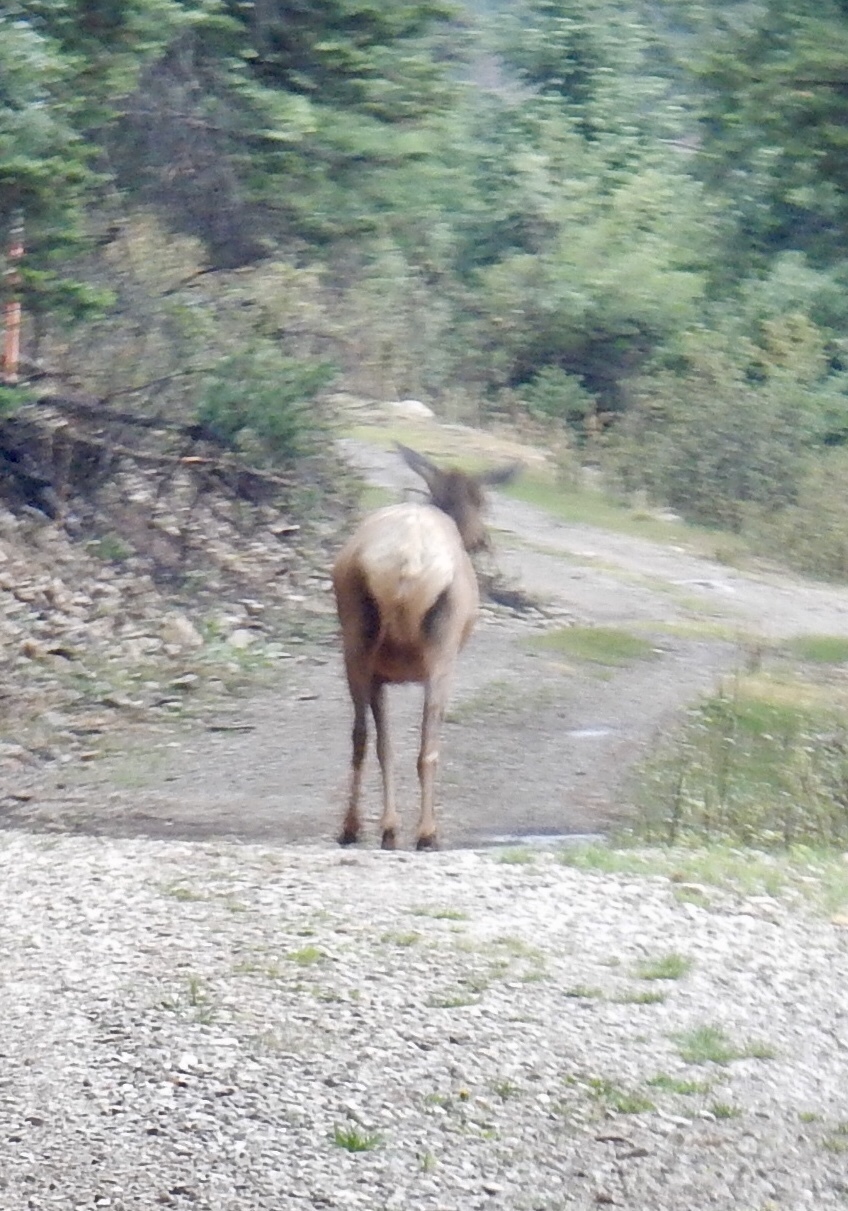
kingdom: Animalia
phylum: Chordata
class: Mammalia
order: Artiodactyla
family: Cervidae
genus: Cervus
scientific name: Cervus elaphus
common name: Red deer
